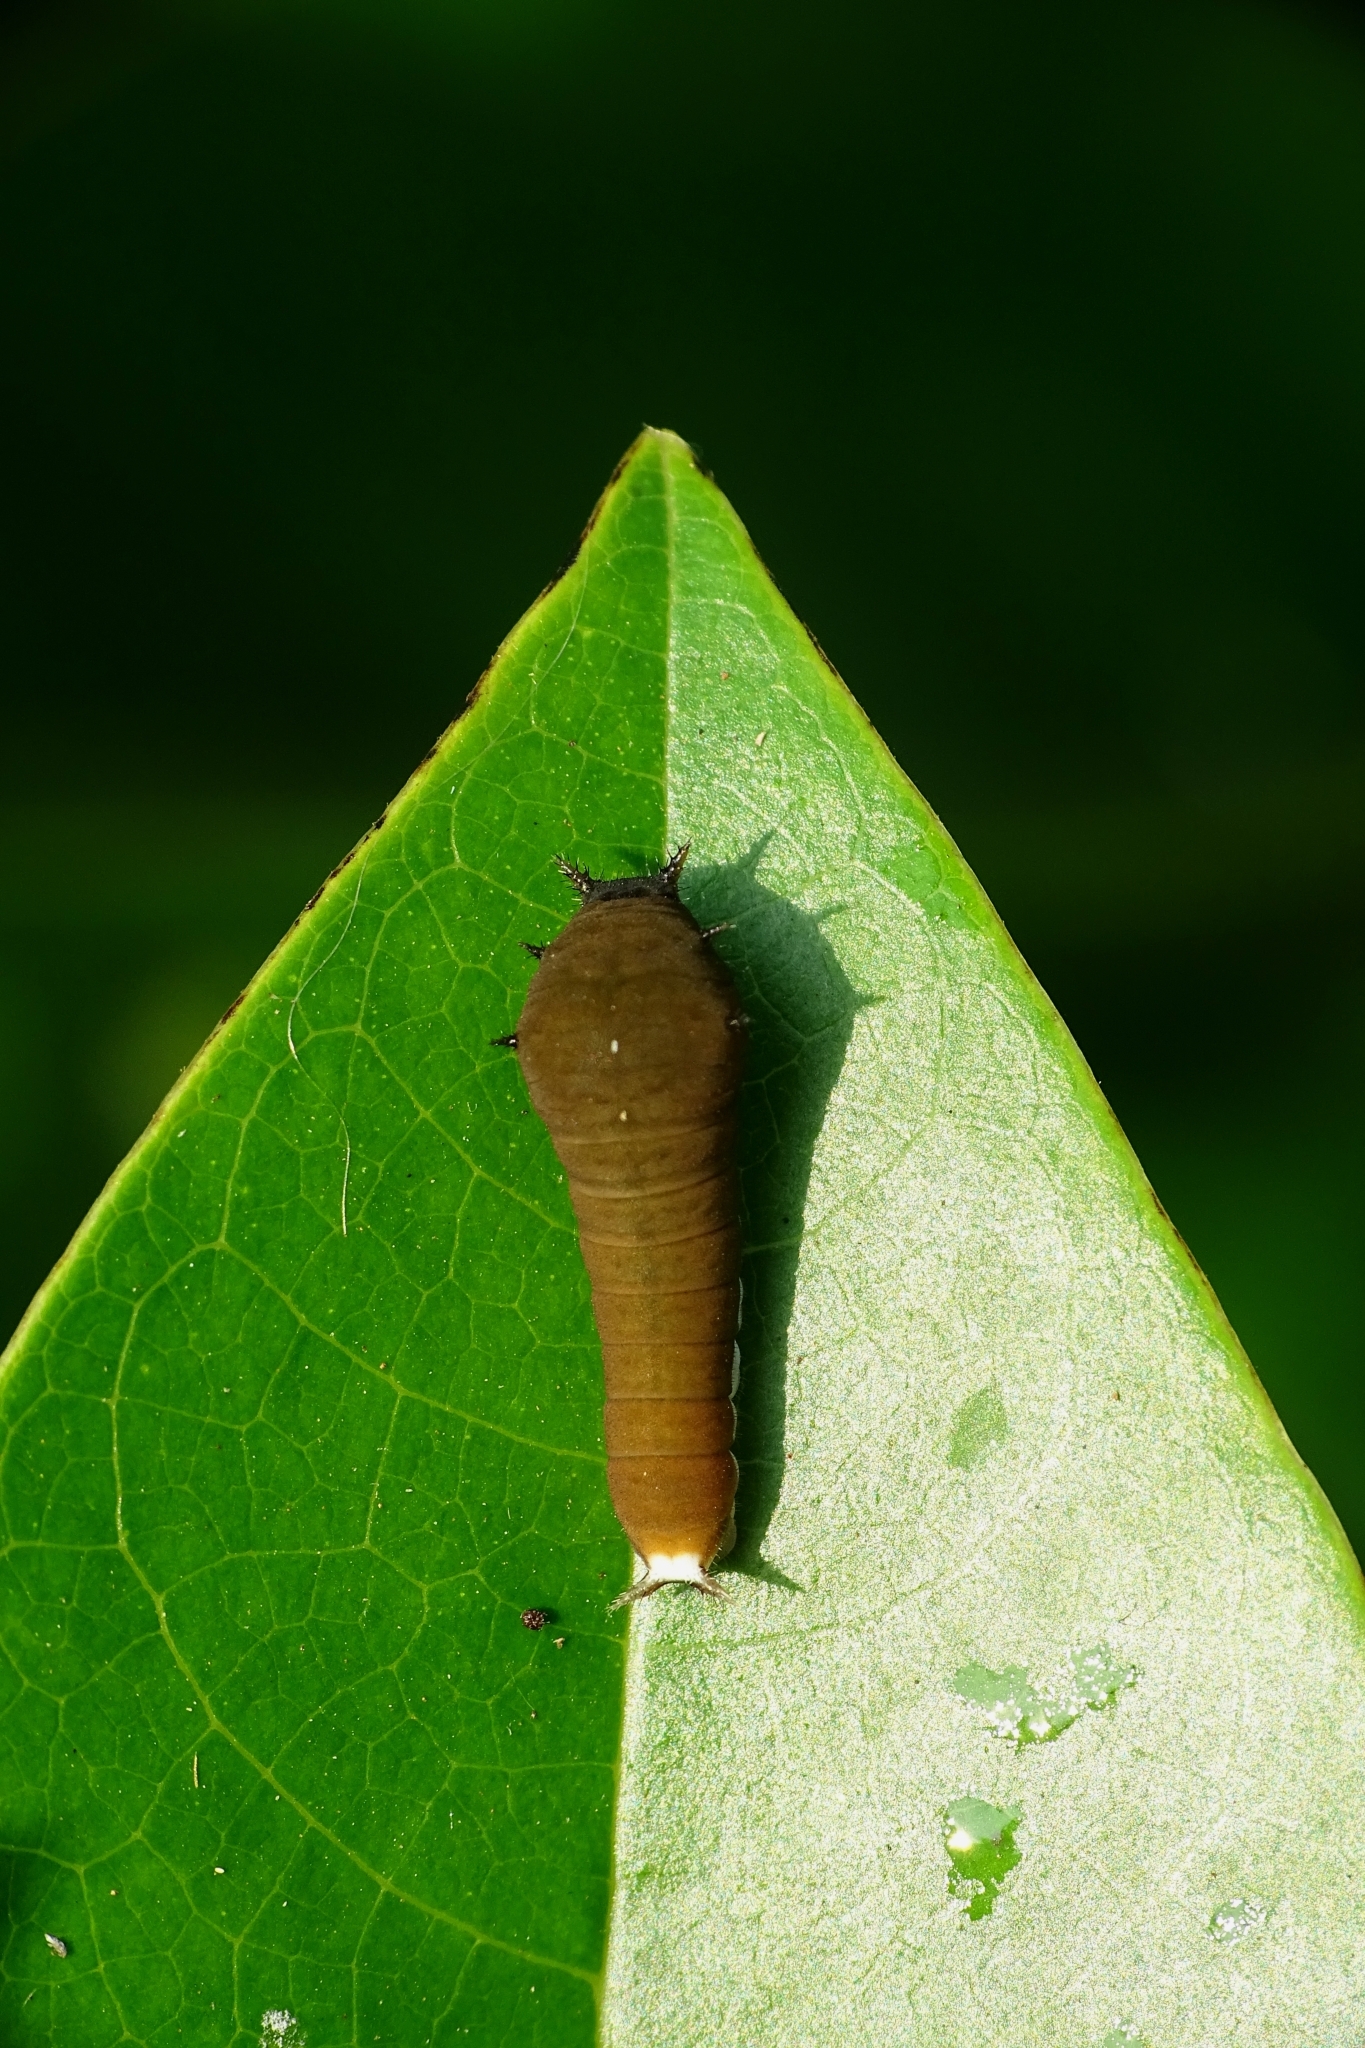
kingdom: Animalia
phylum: Arthropoda
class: Insecta
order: Lepidoptera
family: Papilionidae
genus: Graphium
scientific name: Graphium doson
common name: Common jay
